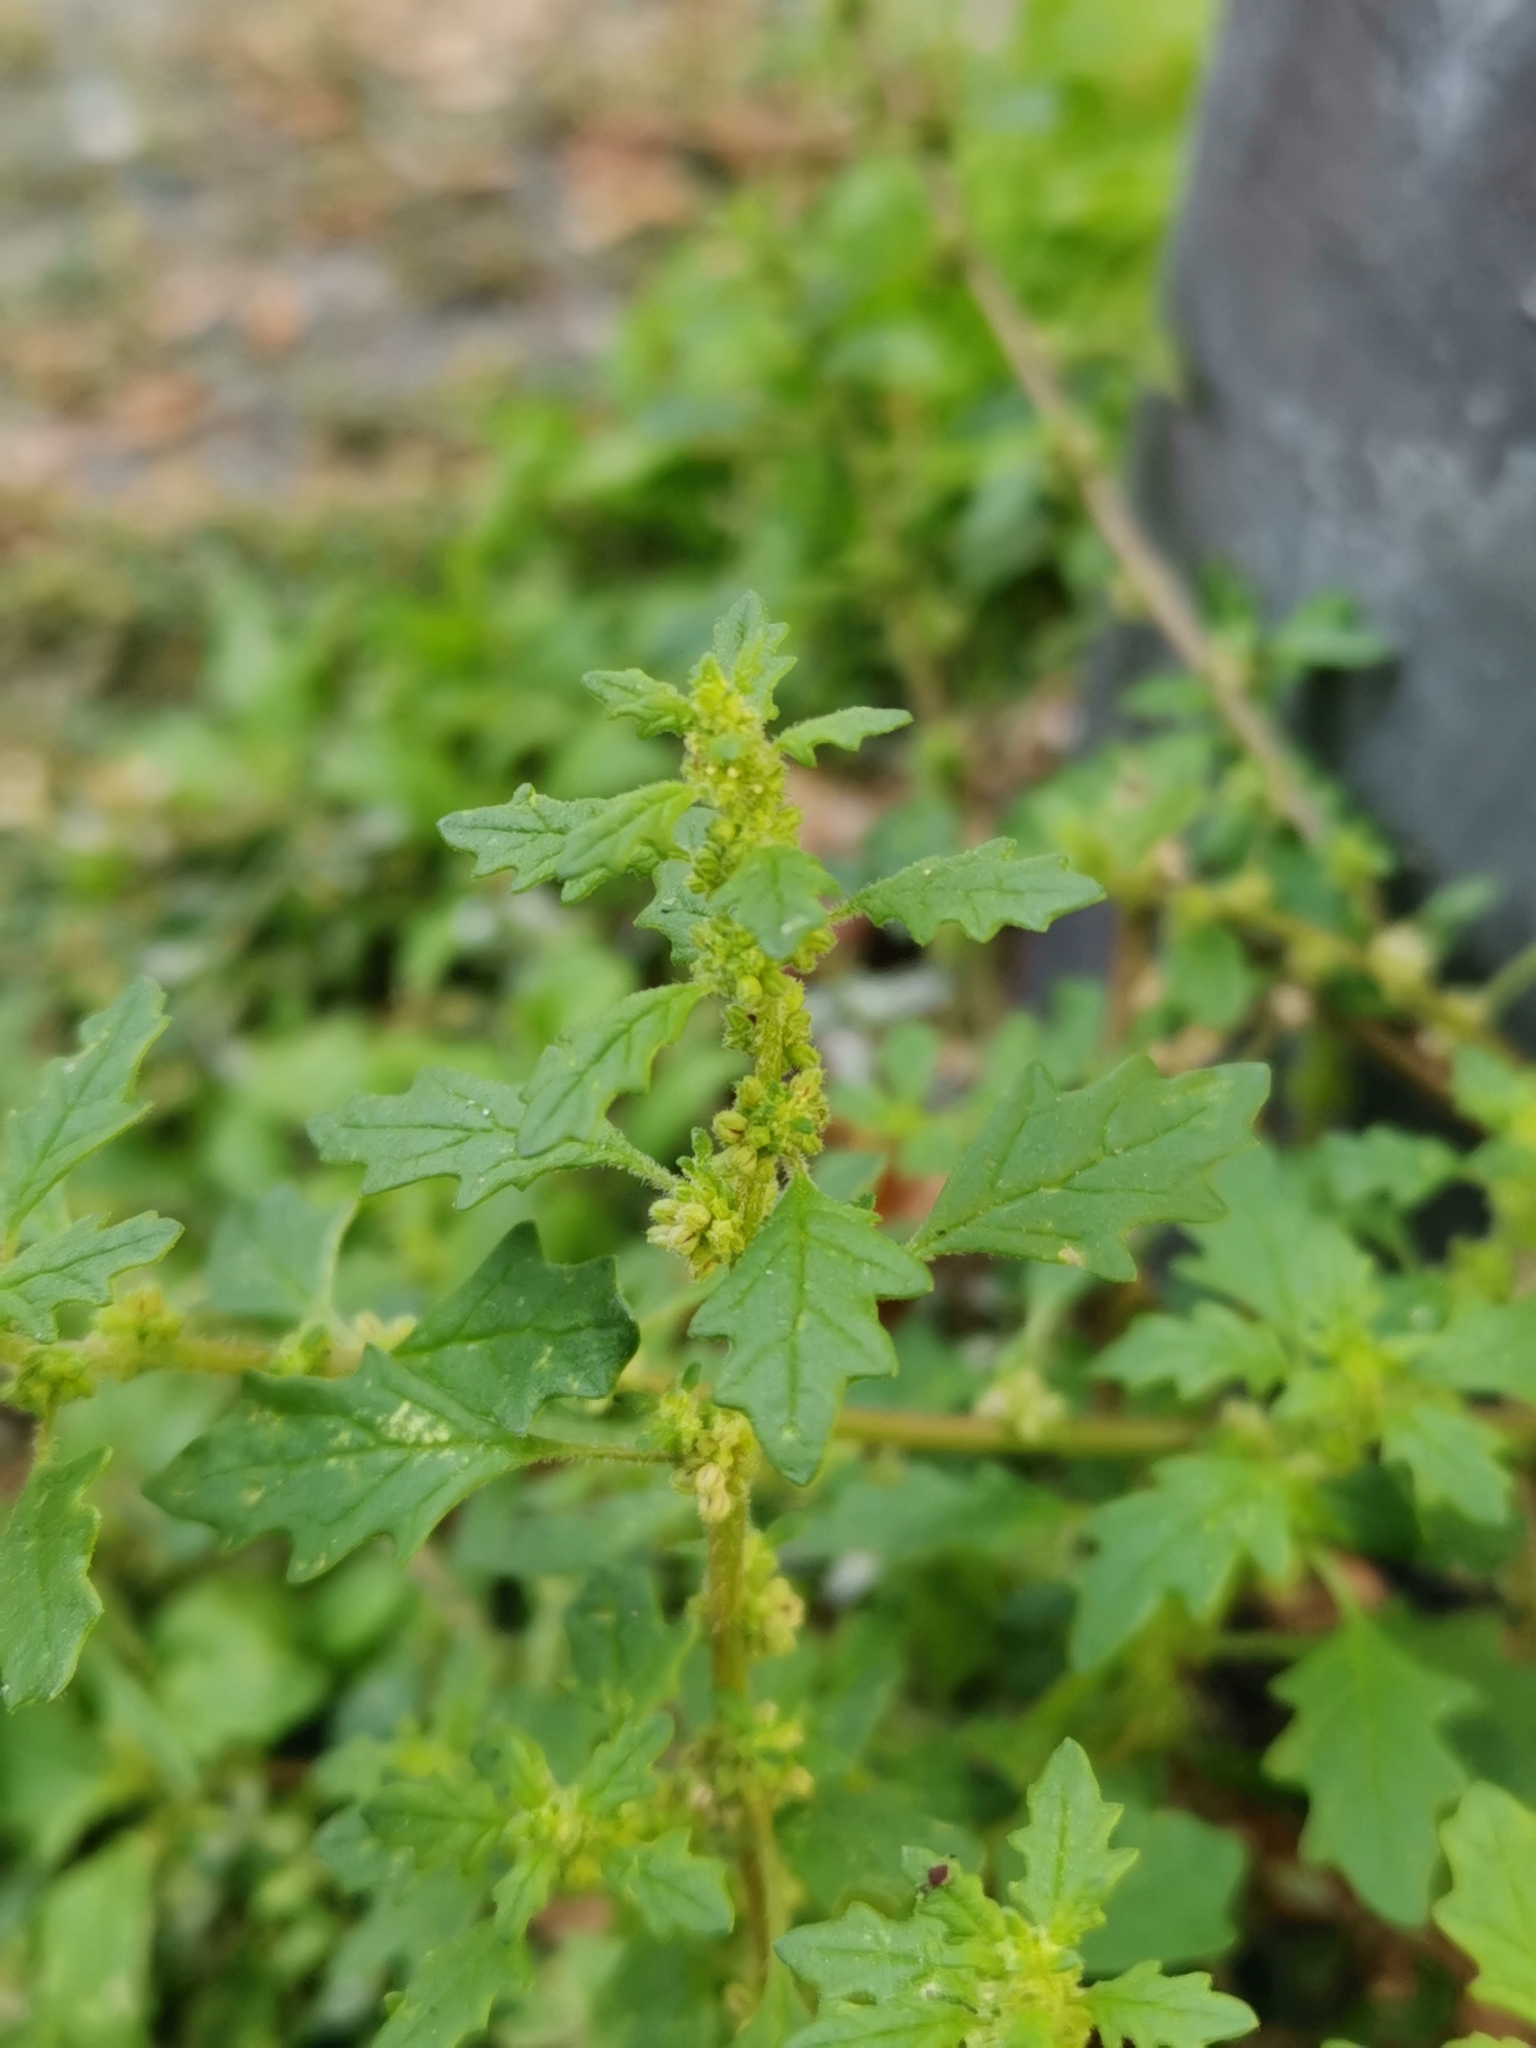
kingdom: Plantae
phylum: Tracheophyta
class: Magnoliopsida
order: Caryophyllales
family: Amaranthaceae
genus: Dysphania
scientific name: Dysphania pumilio
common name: Clammy goosefoot
